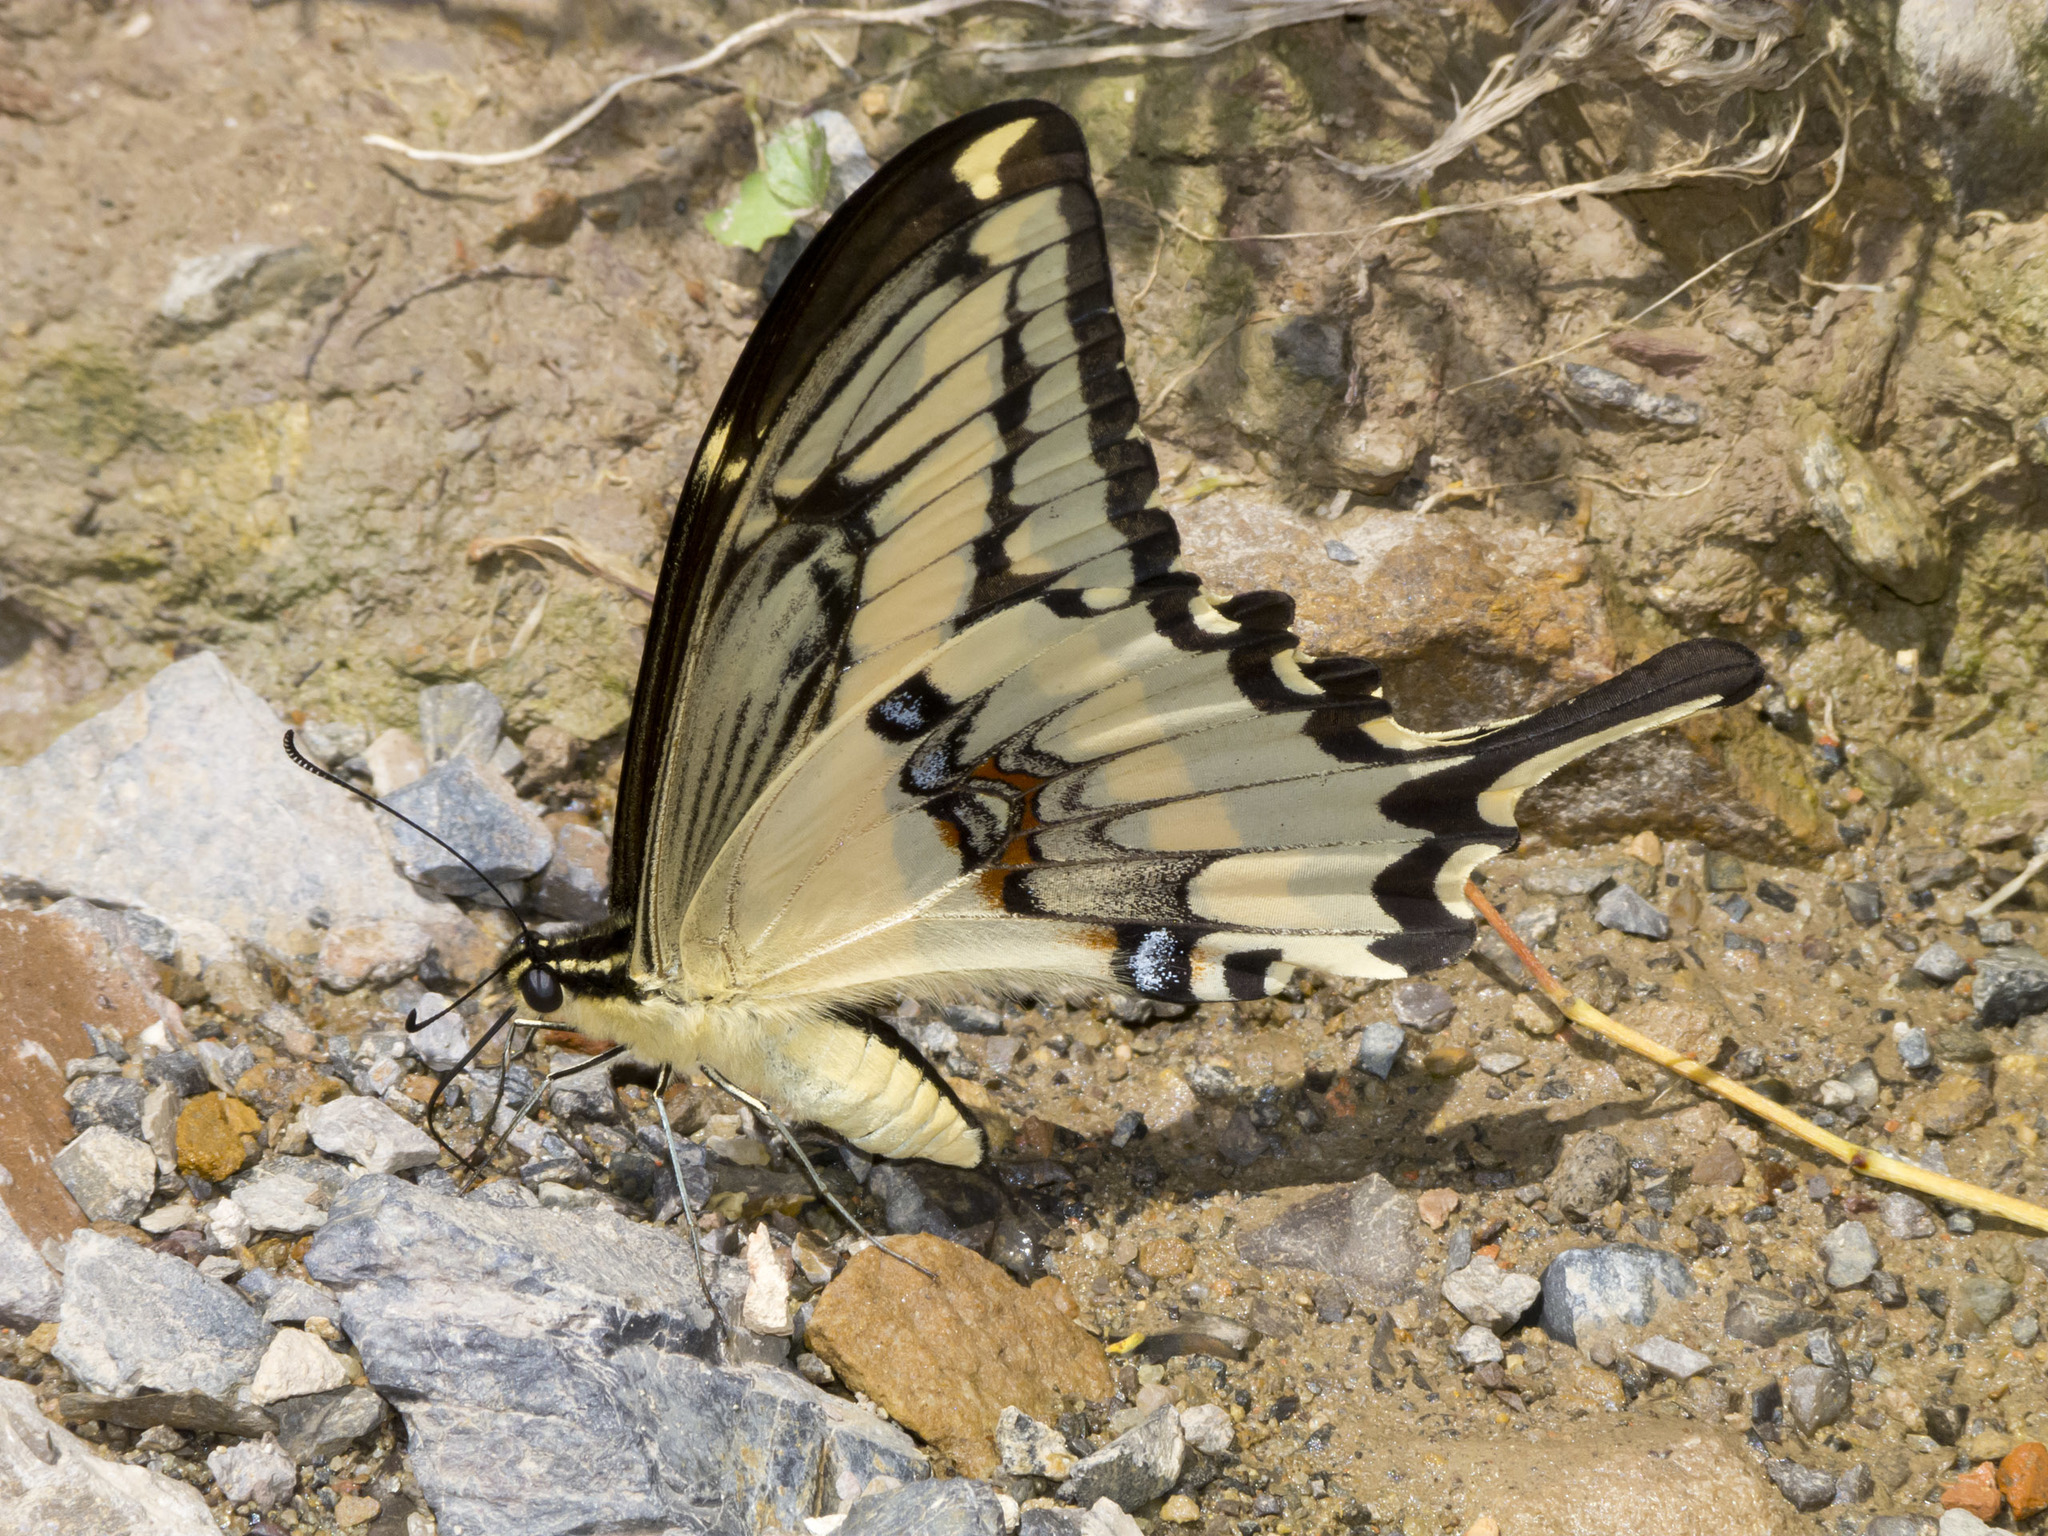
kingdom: Animalia
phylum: Arthropoda
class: Insecta
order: Lepidoptera
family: Papilionidae
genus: Heraclides
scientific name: Heraclides pallas
